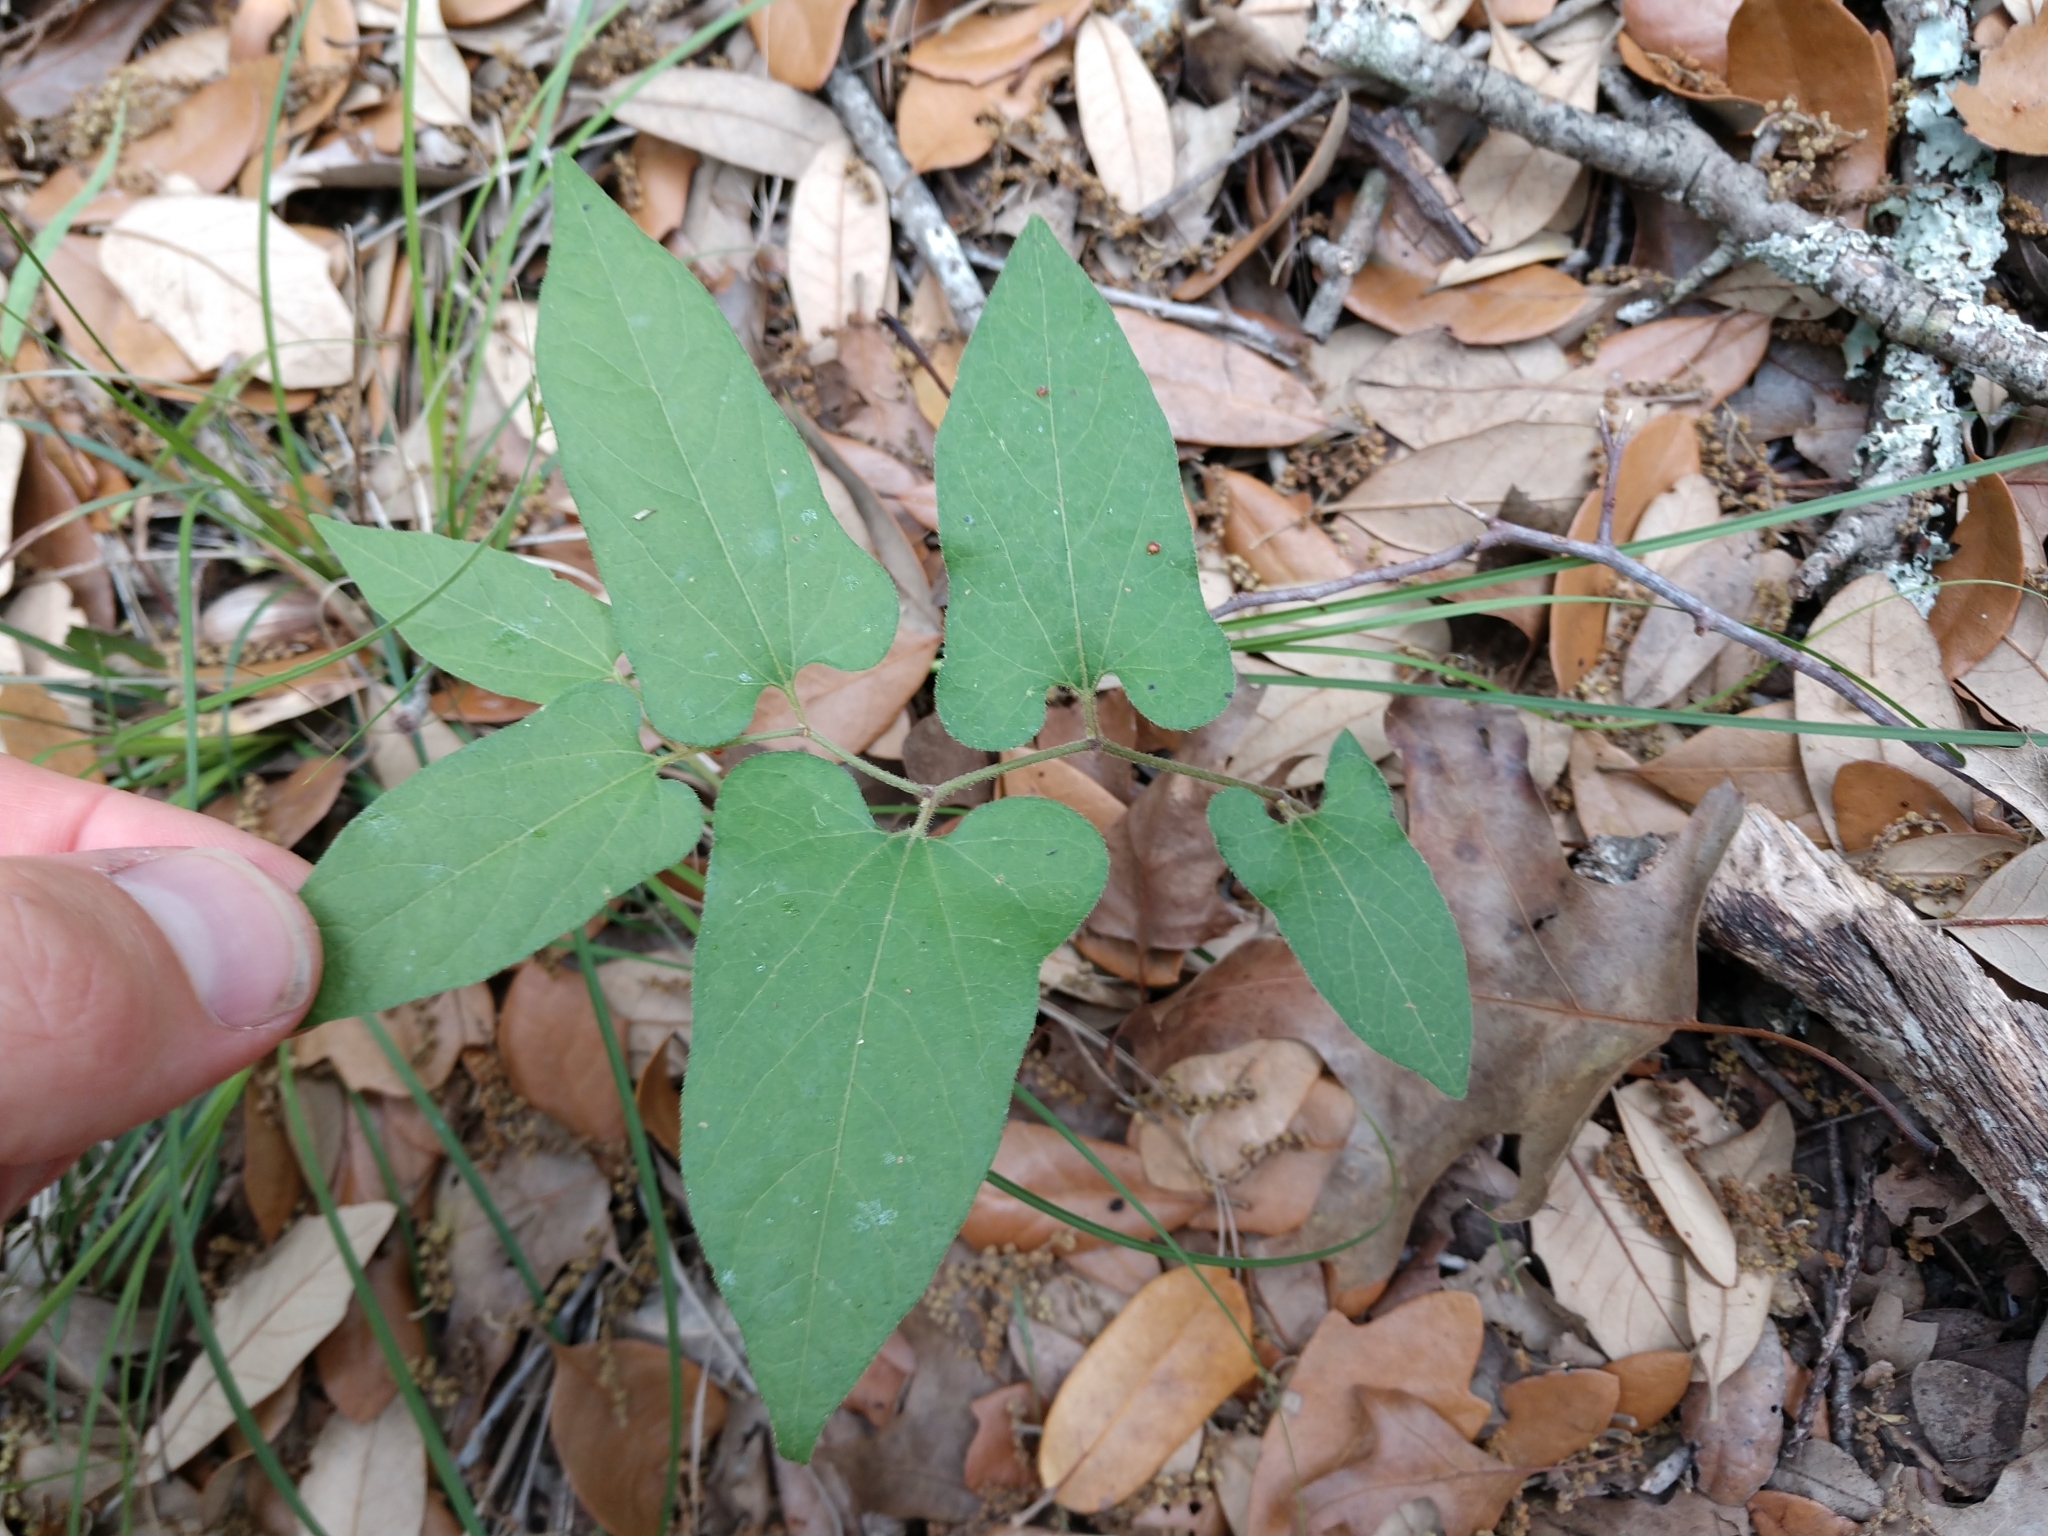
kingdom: Plantae
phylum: Tracheophyta
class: Magnoliopsida
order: Piperales
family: Aristolochiaceae
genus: Endodeca
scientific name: Endodeca serpentaria
